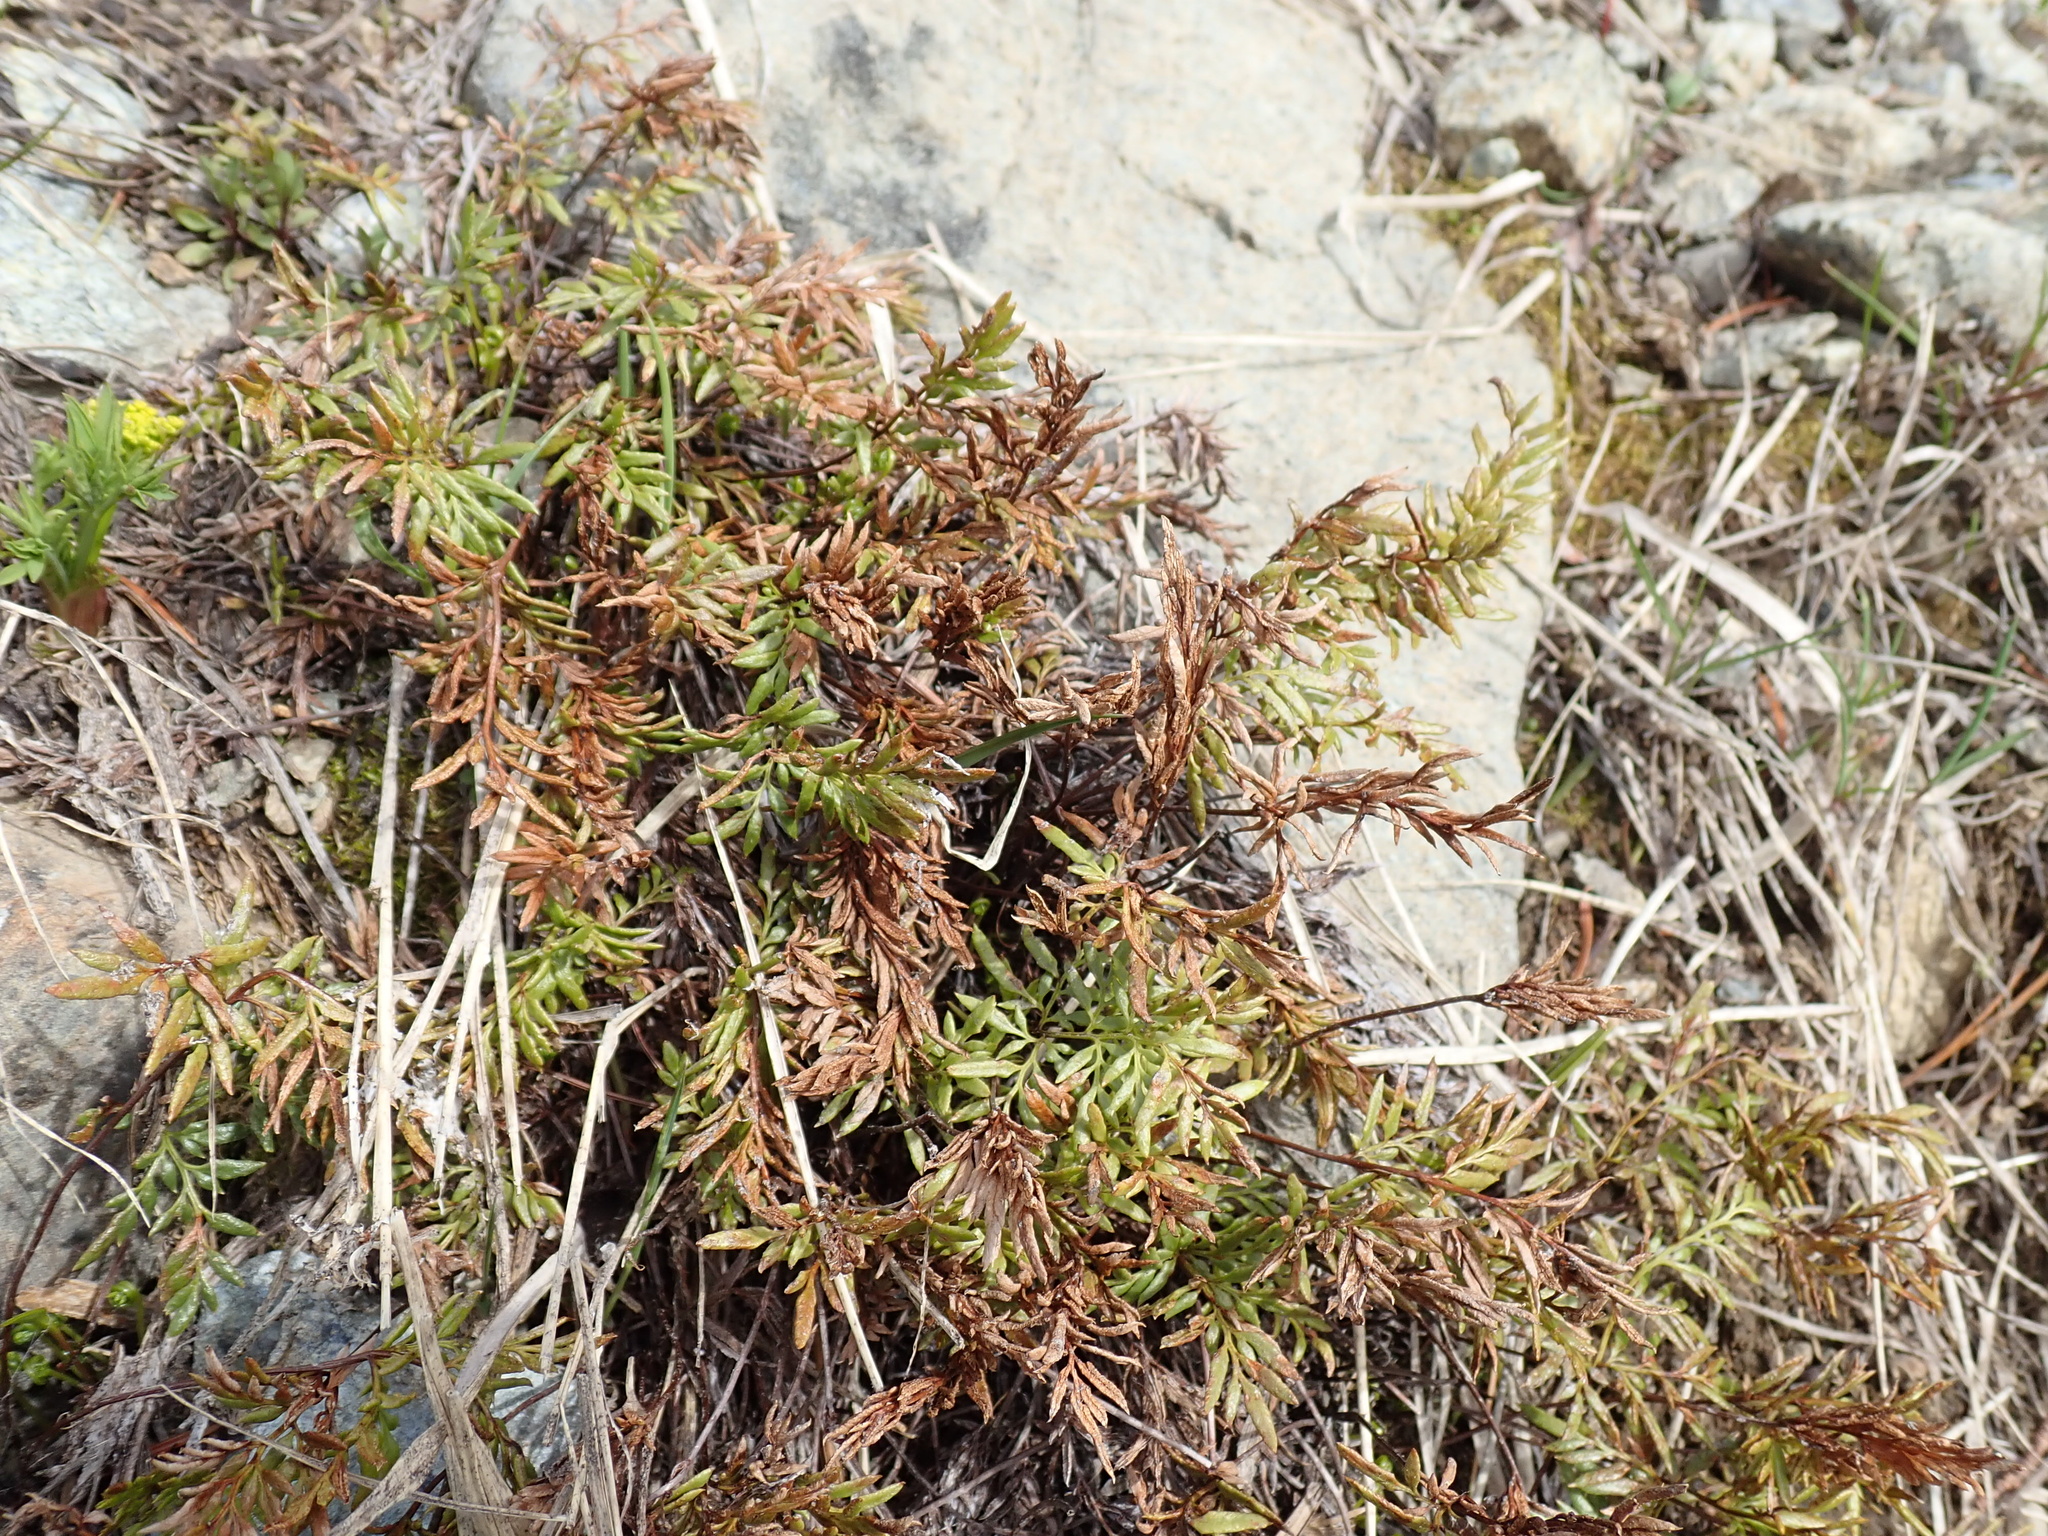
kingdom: Plantae
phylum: Tracheophyta
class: Polypodiopsida
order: Polypodiales
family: Pteridaceae
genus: Aspidotis
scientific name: Aspidotis densa
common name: Indian's dream
